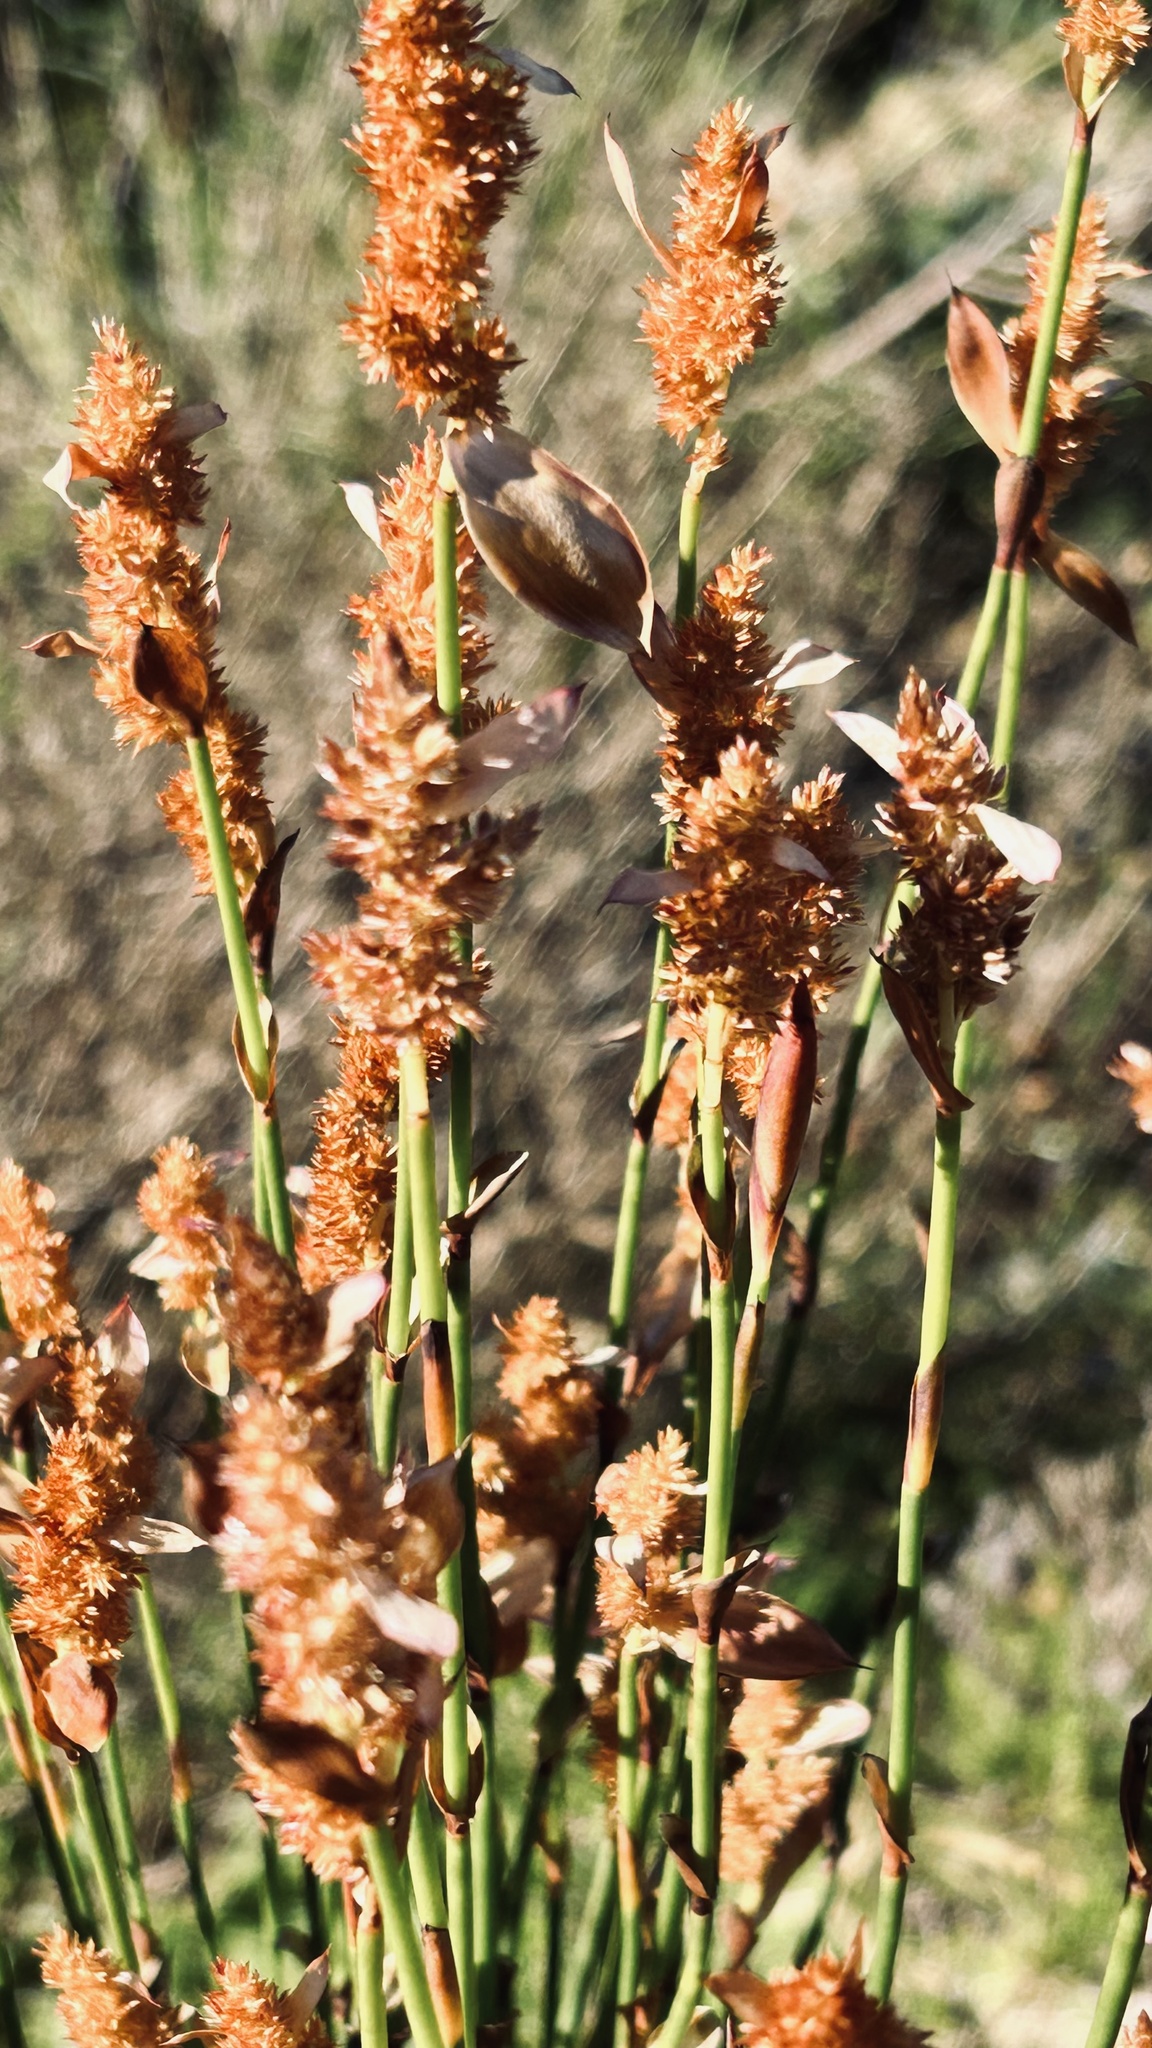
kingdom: Plantae
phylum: Tracheophyta
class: Liliopsida
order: Poales
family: Restionaceae
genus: Elegia
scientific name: Elegia muirii
